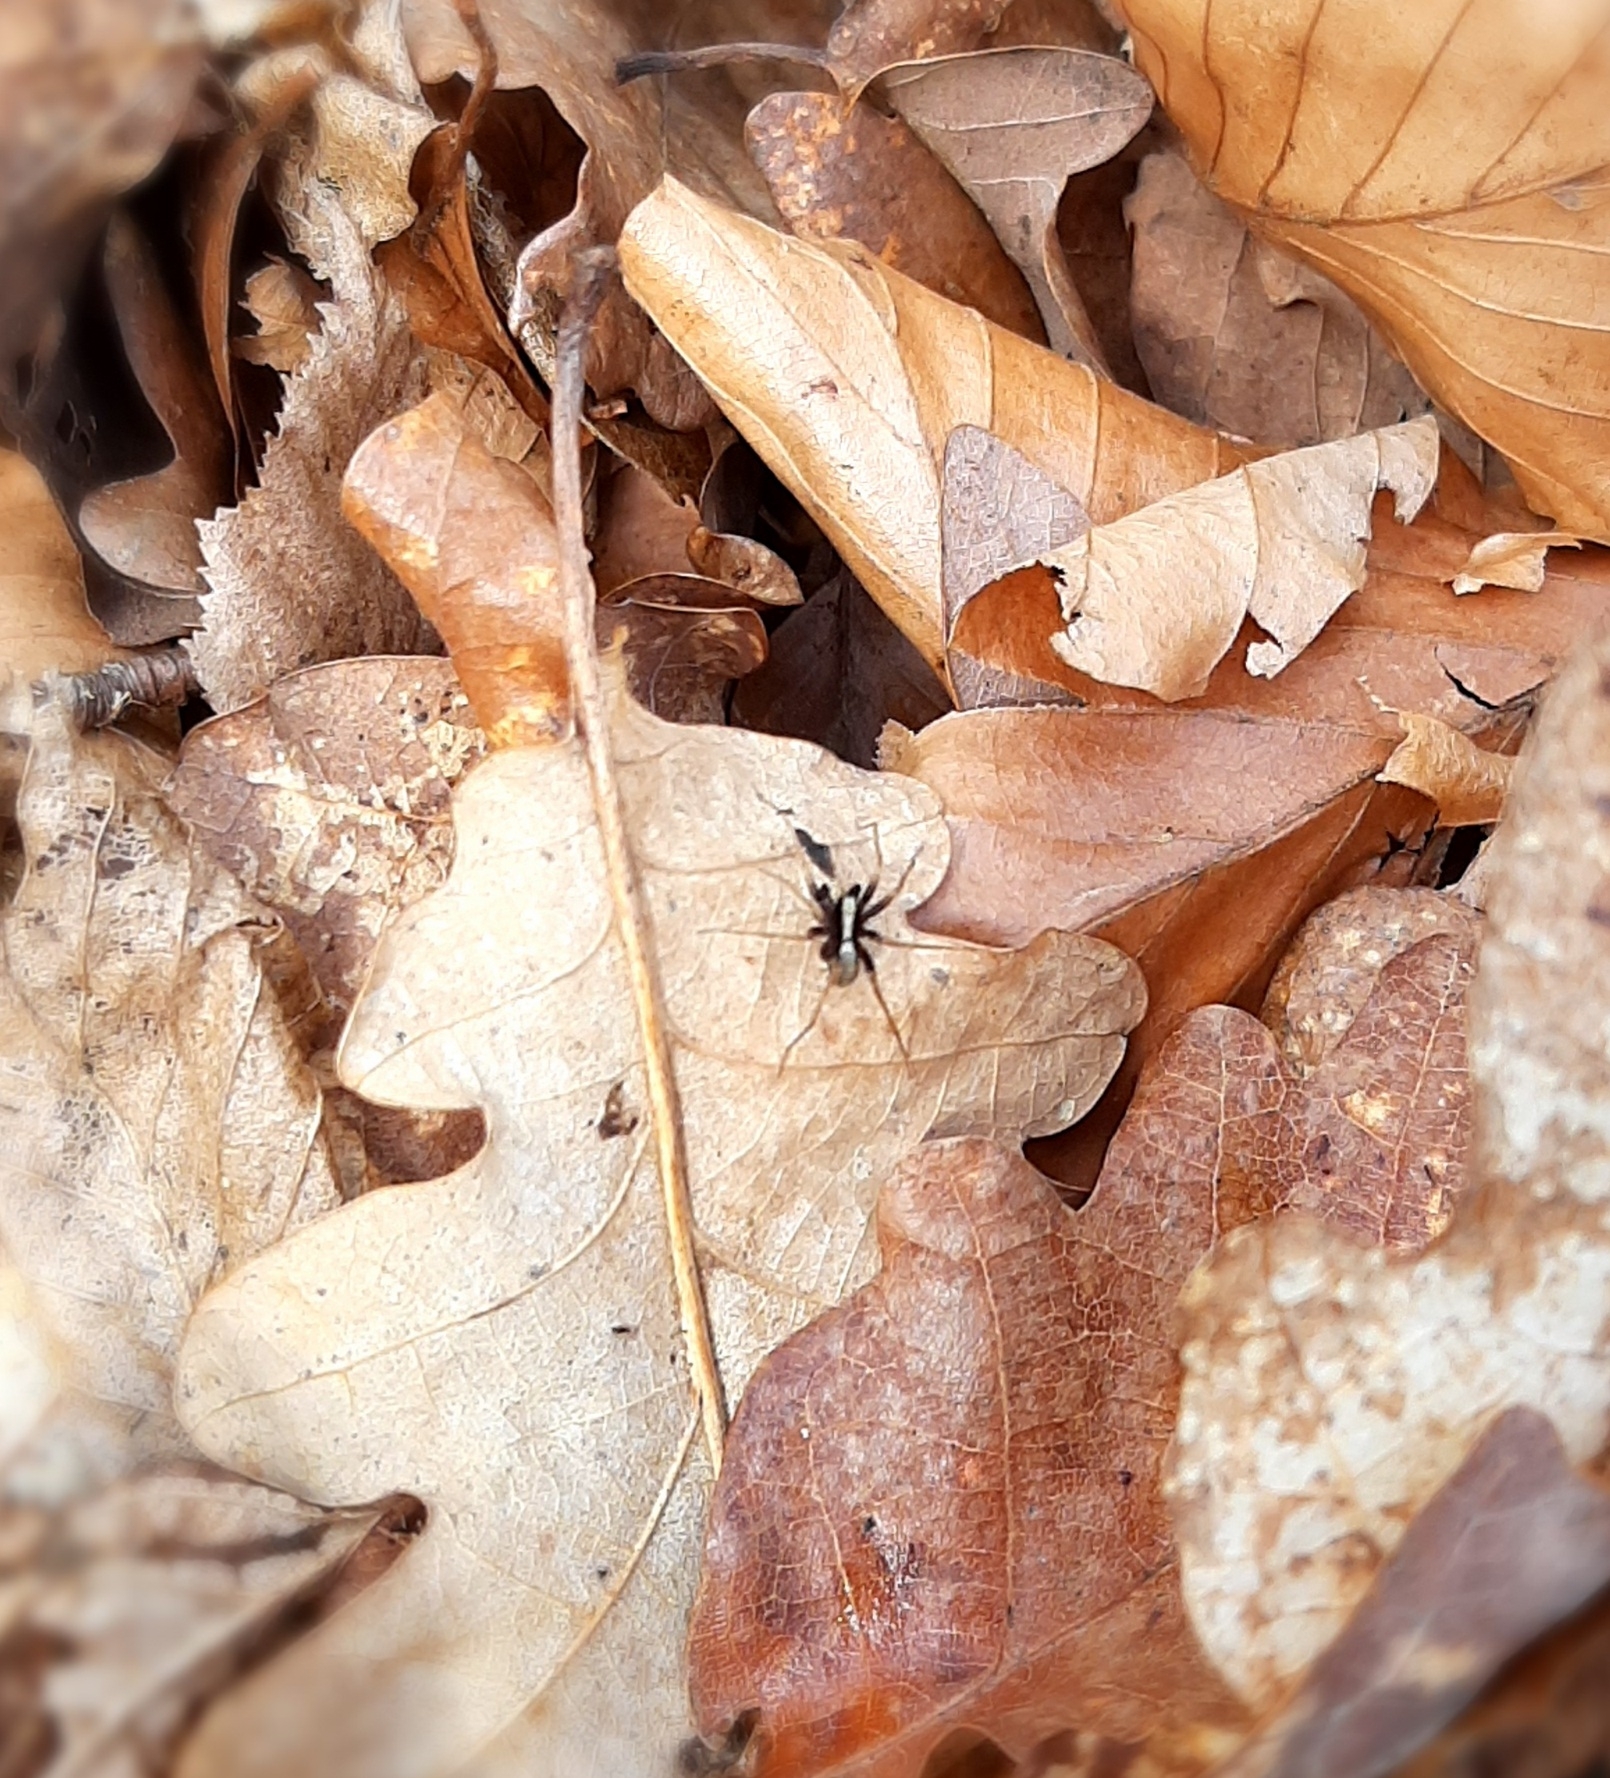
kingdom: Animalia
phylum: Arthropoda
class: Arachnida
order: Araneae
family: Lycosidae
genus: Pardosa
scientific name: Pardosa
